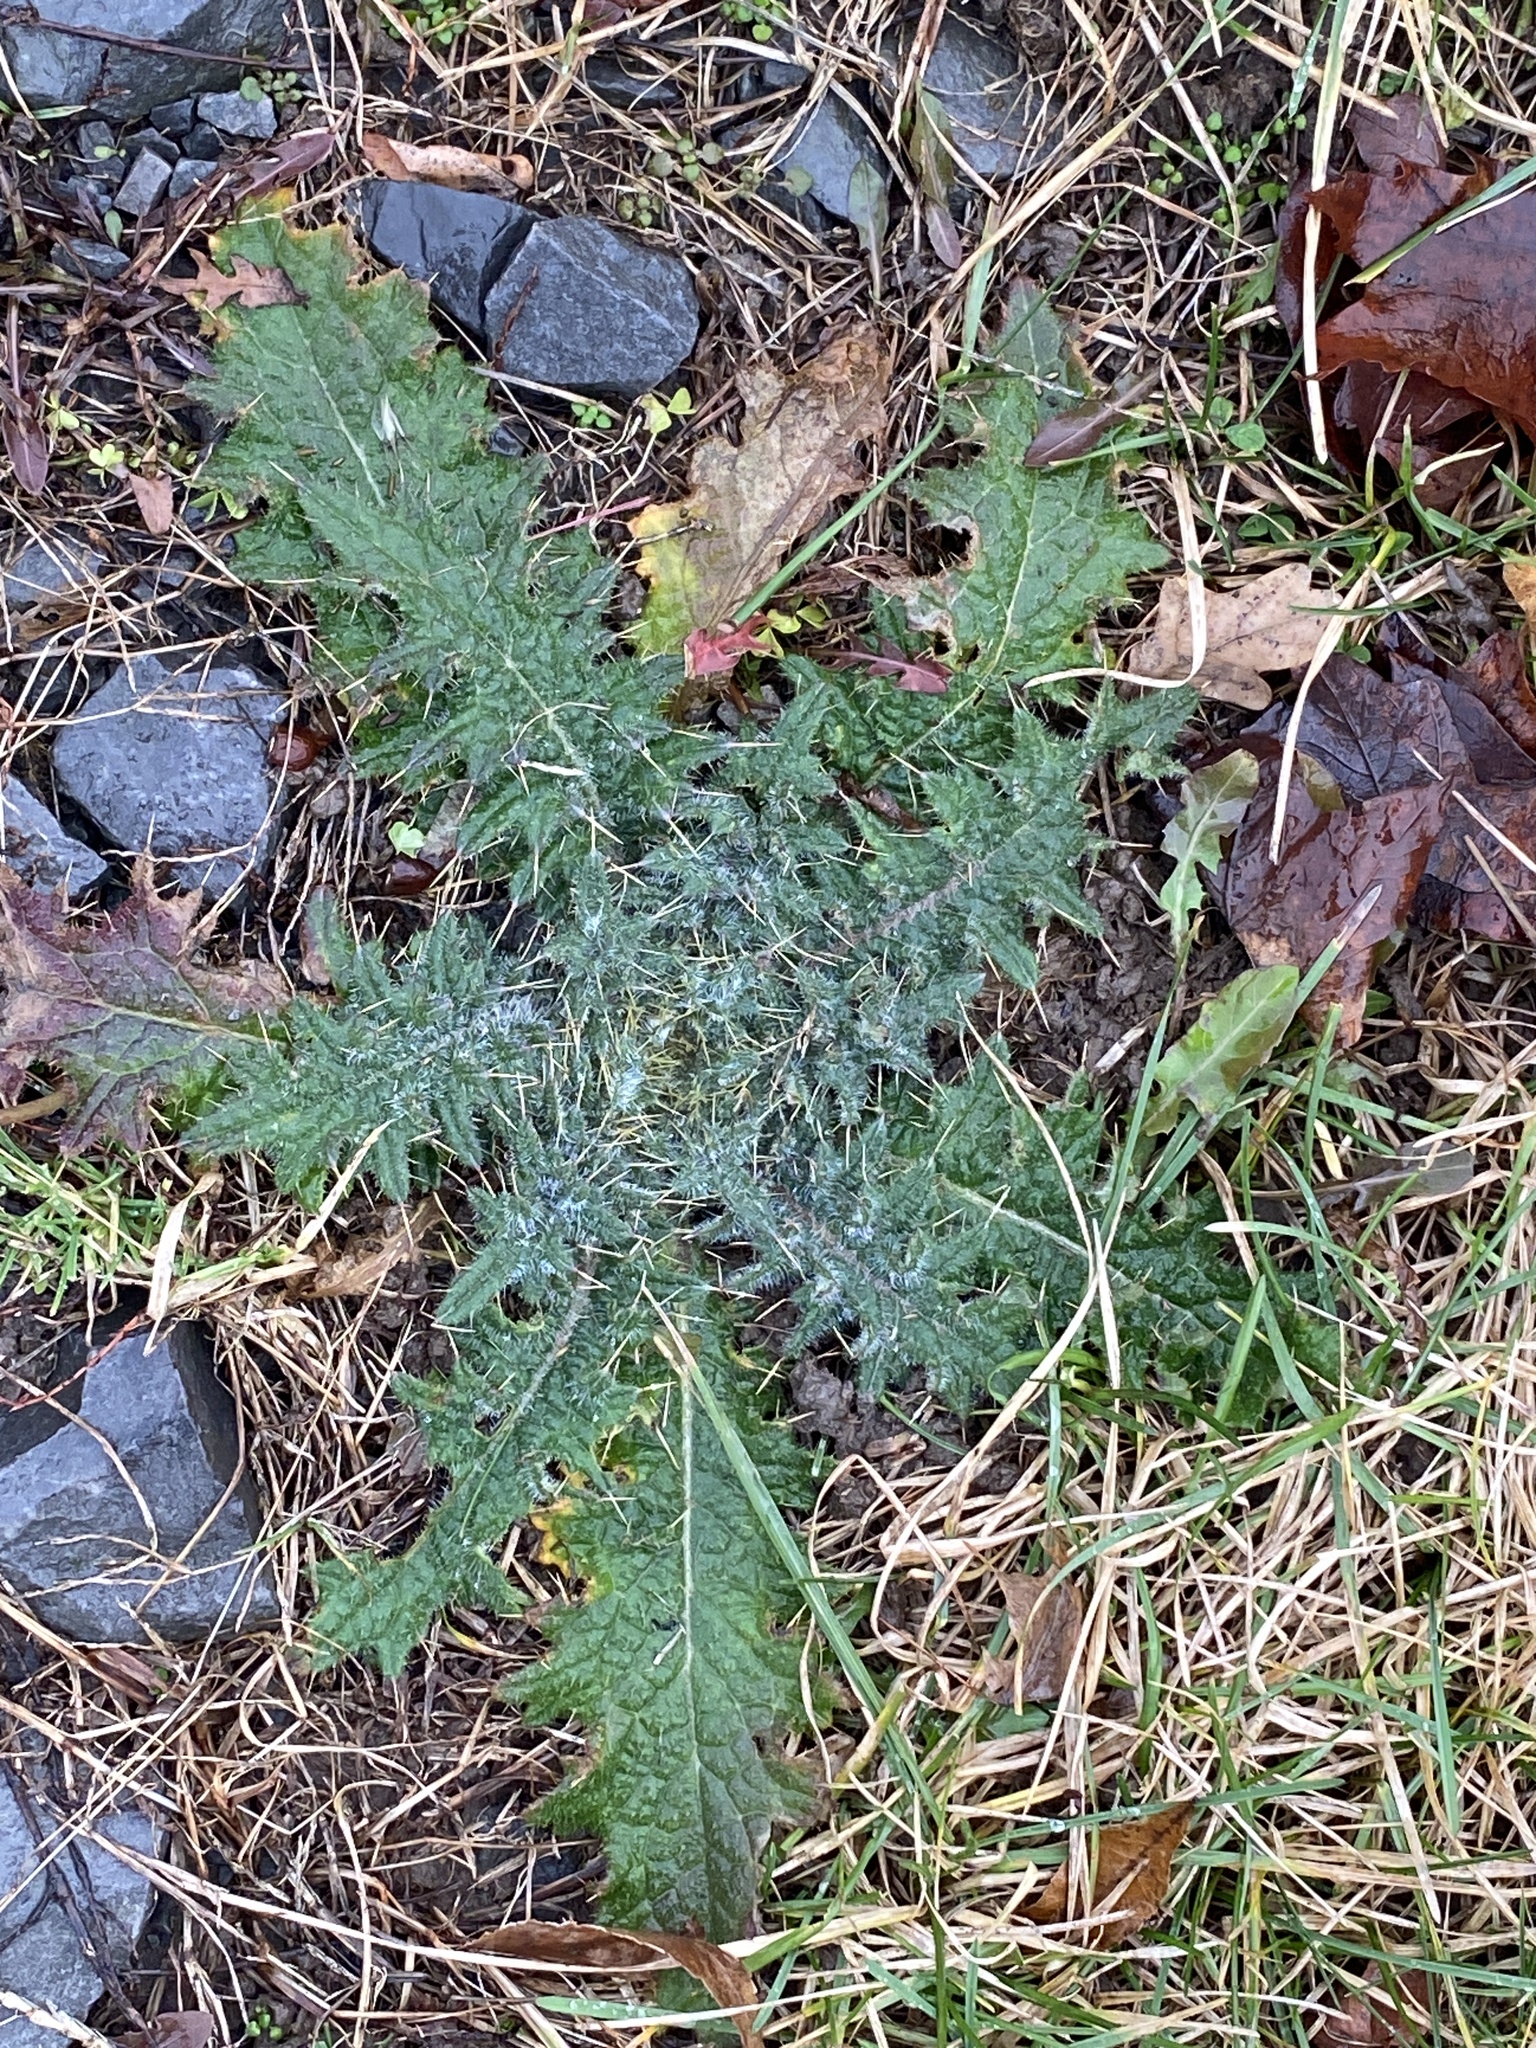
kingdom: Plantae
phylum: Tracheophyta
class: Magnoliopsida
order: Asterales
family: Asteraceae
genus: Cirsium
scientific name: Cirsium vulgare
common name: Bull thistle
